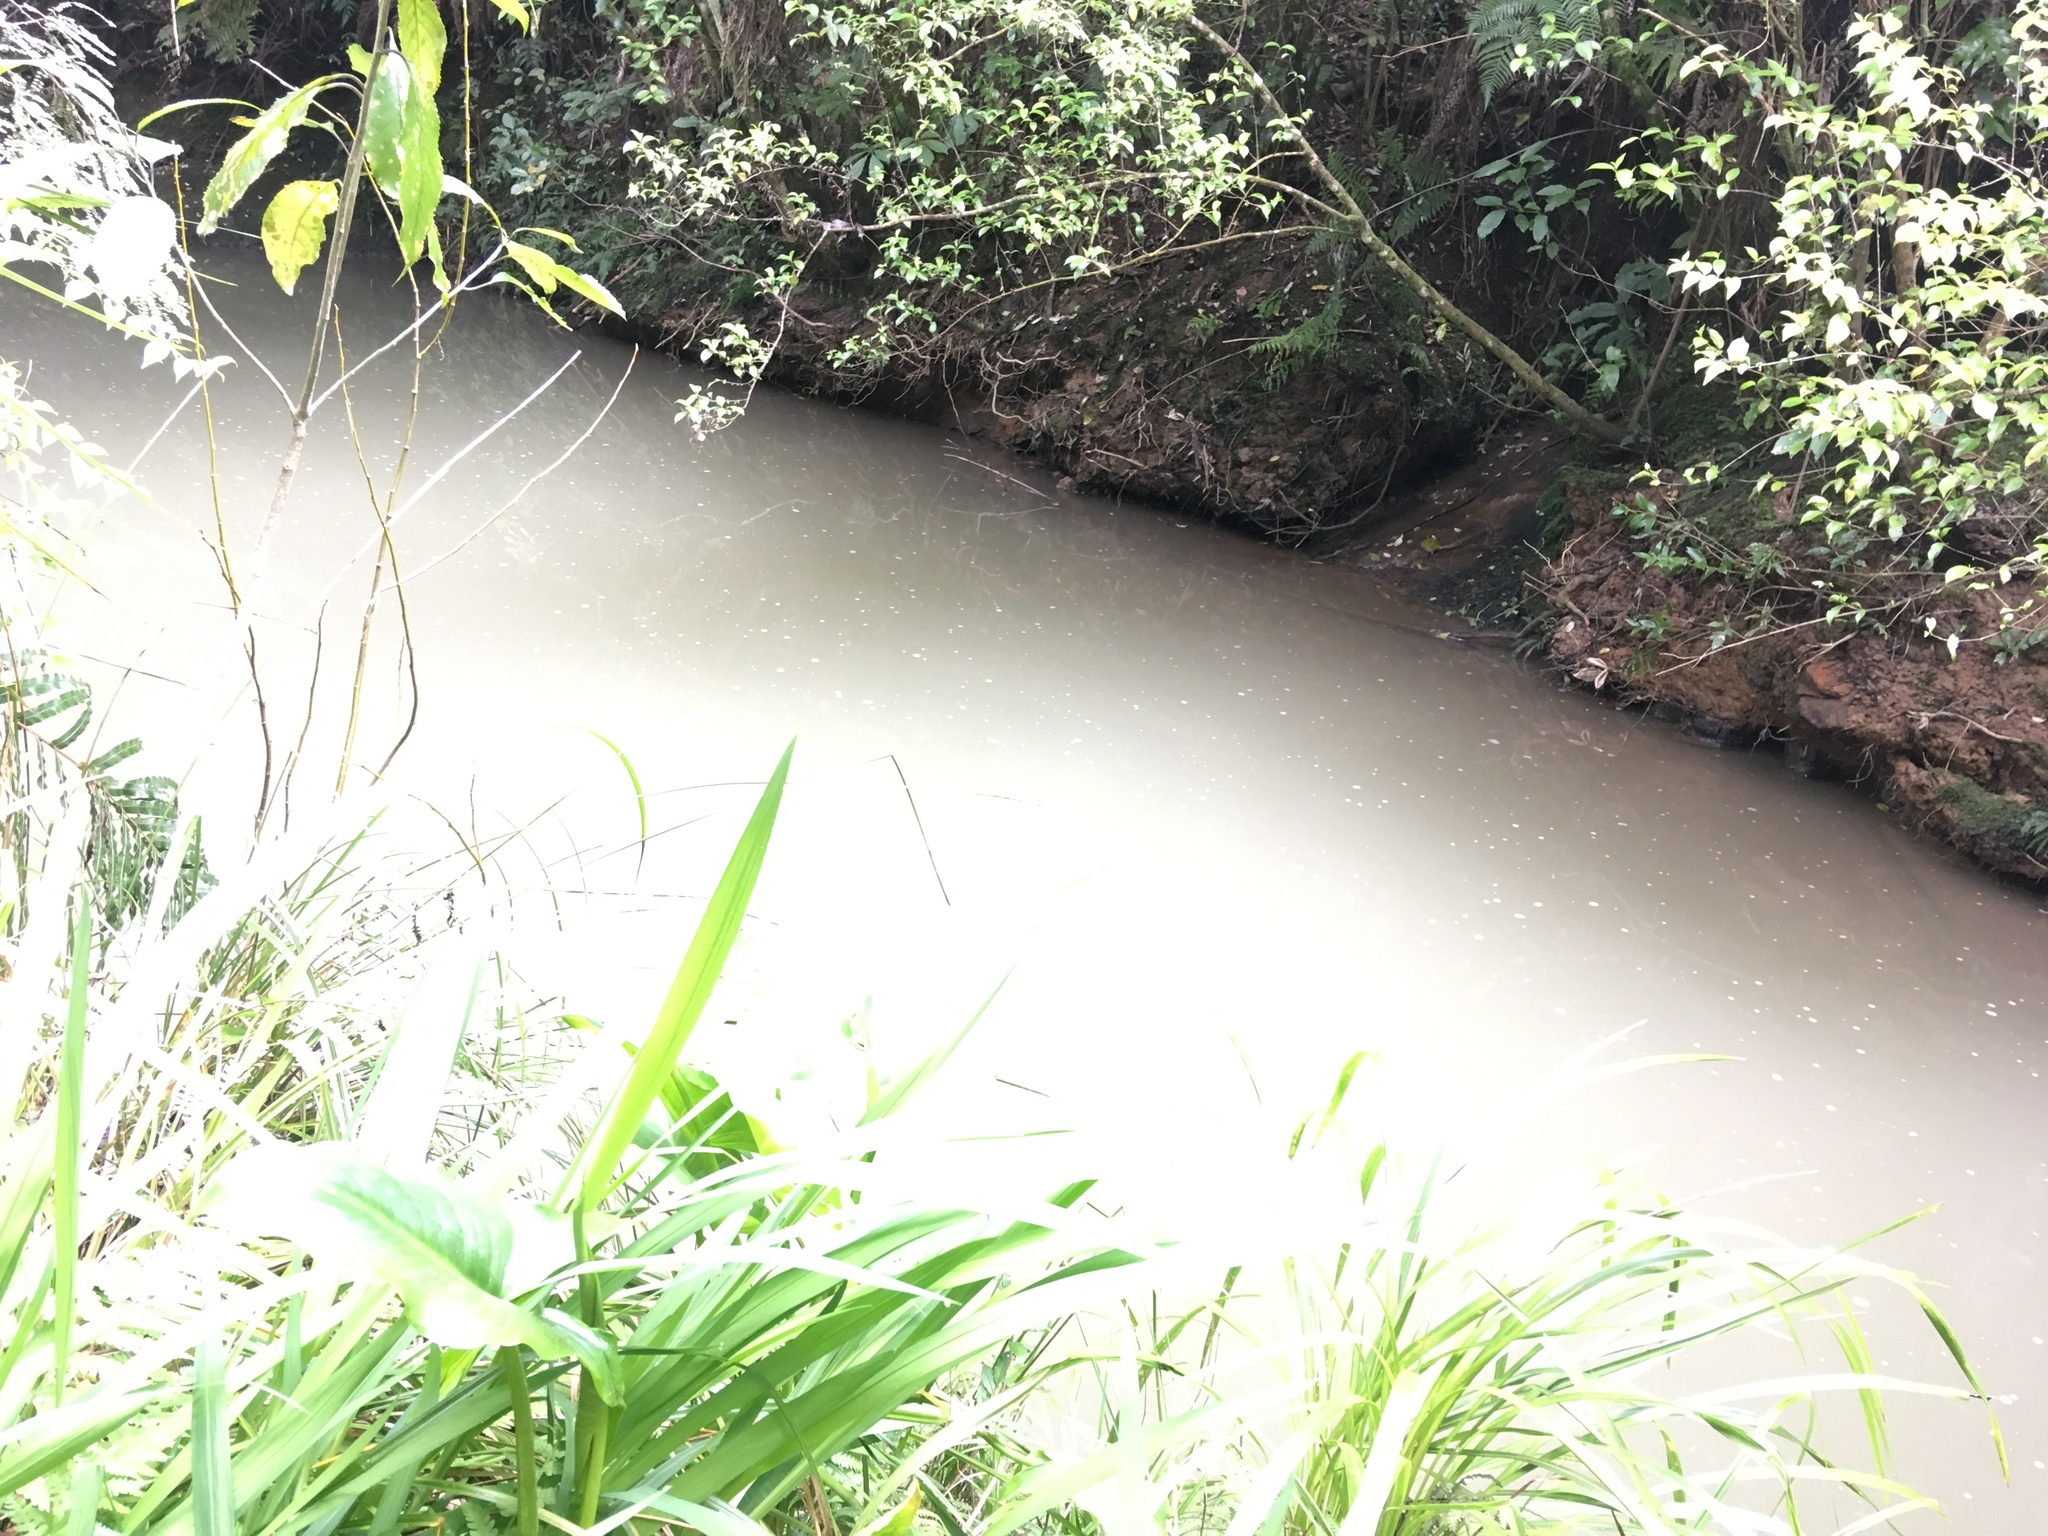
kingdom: Plantae
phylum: Tracheophyta
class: Magnoliopsida
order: Gentianales
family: Loganiaceae
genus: Geniostoma
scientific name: Geniostoma ligustrifolium
